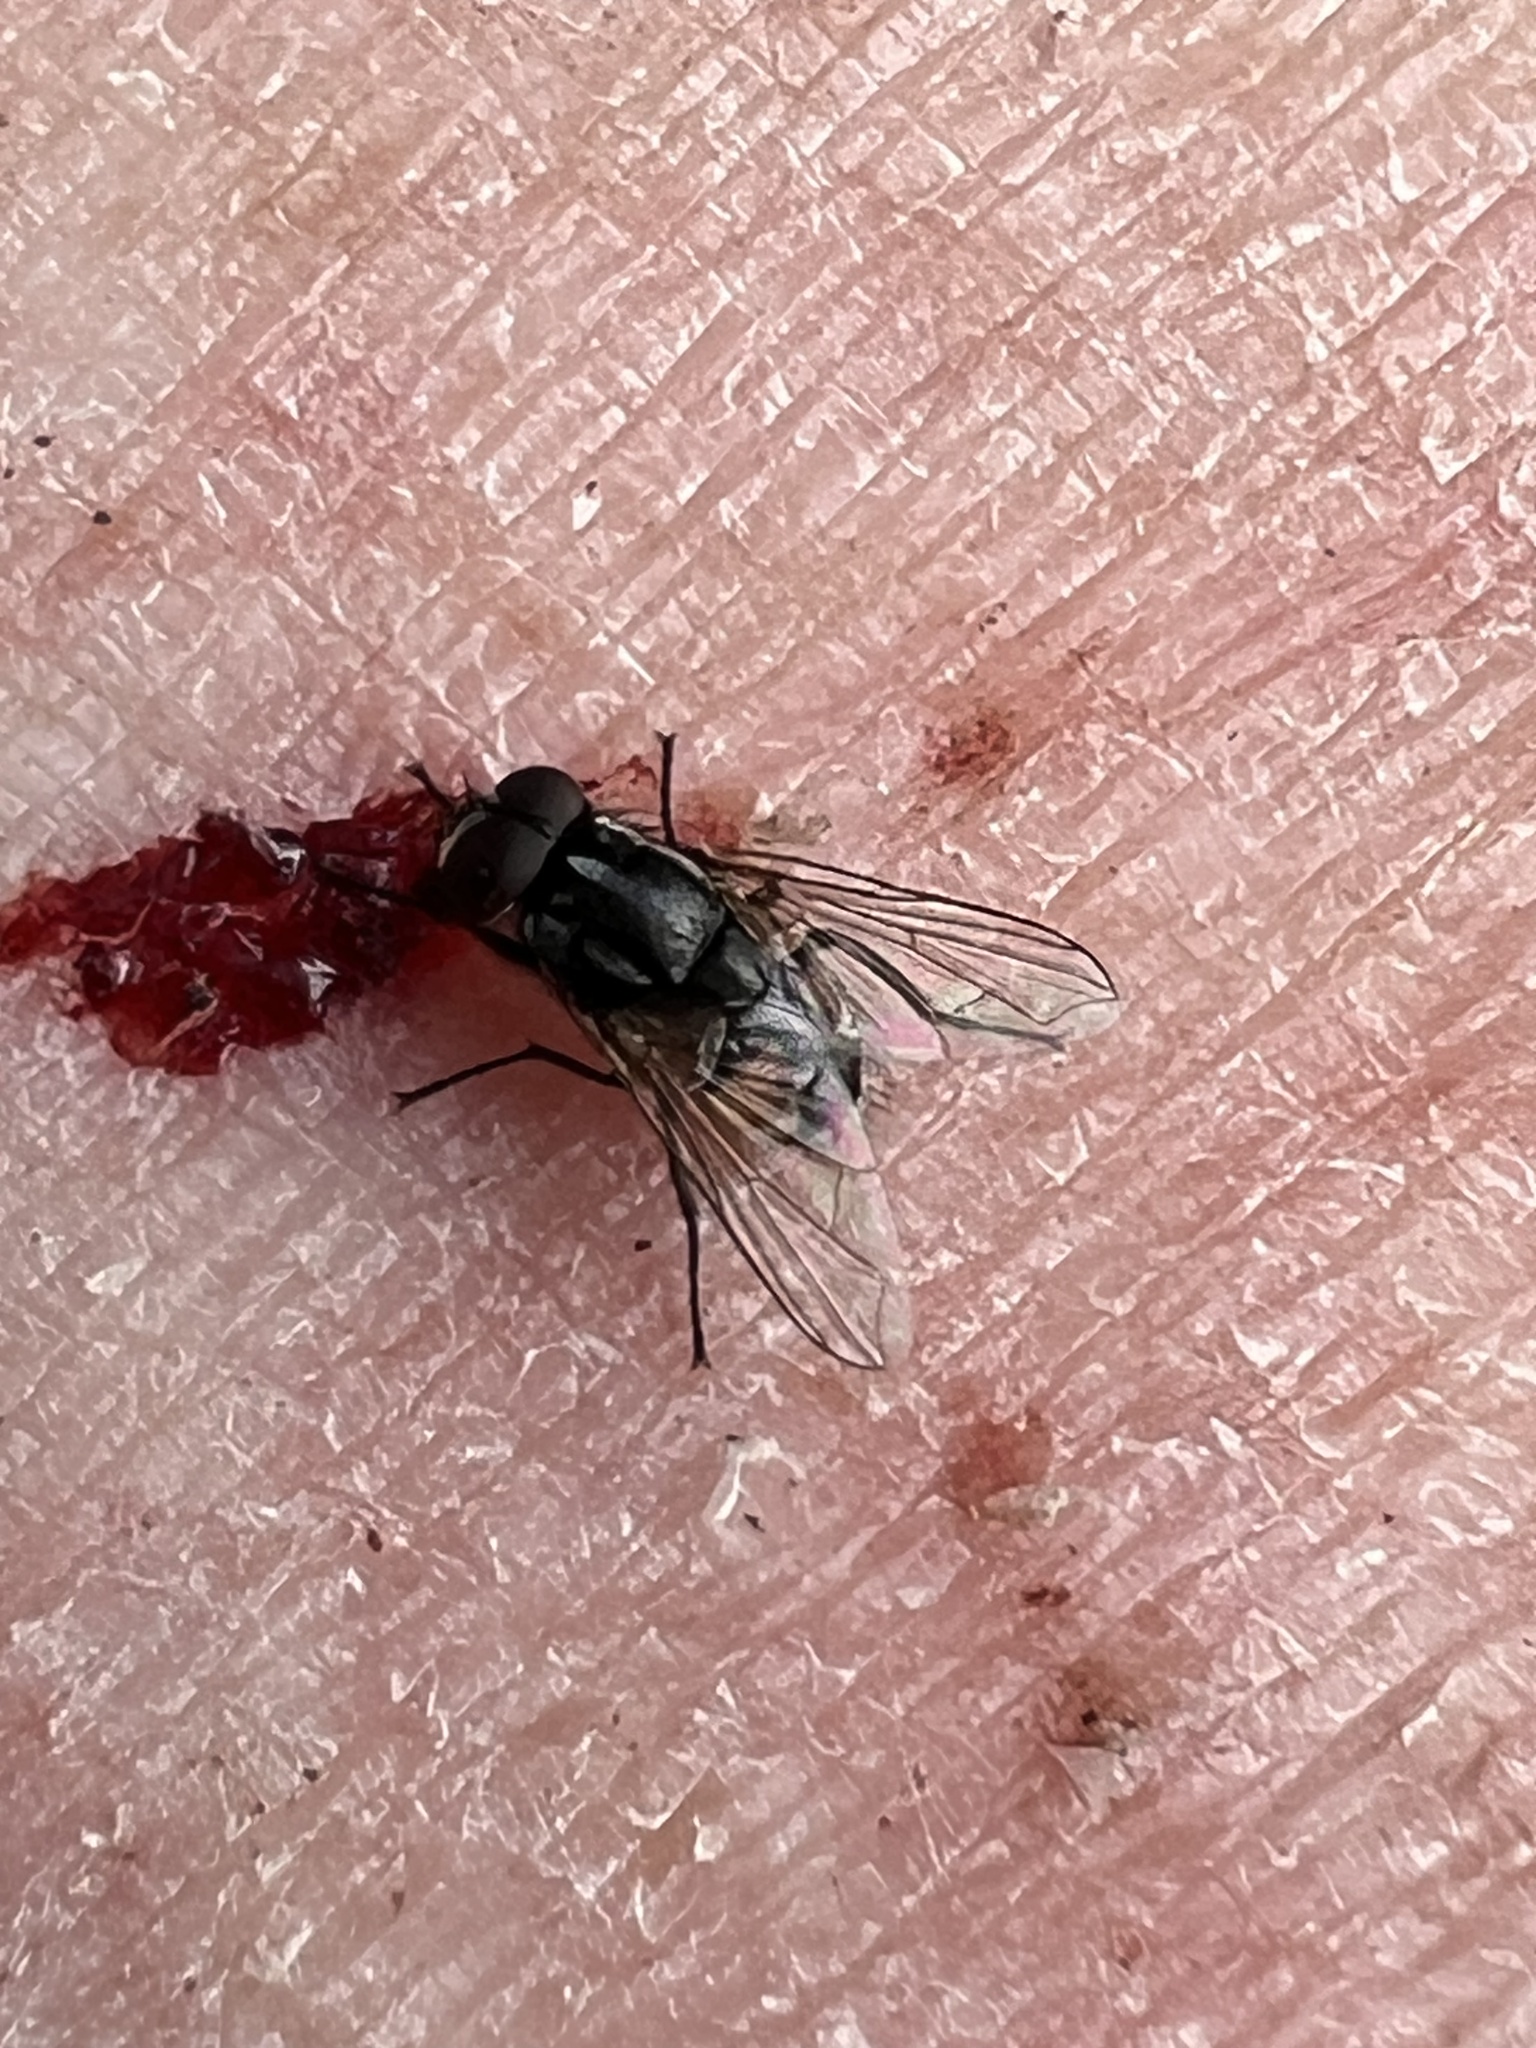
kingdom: Animalia
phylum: Arthropoda
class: Insecta
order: Diptera
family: Muscidae
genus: Musca
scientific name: Musca vetustissima
